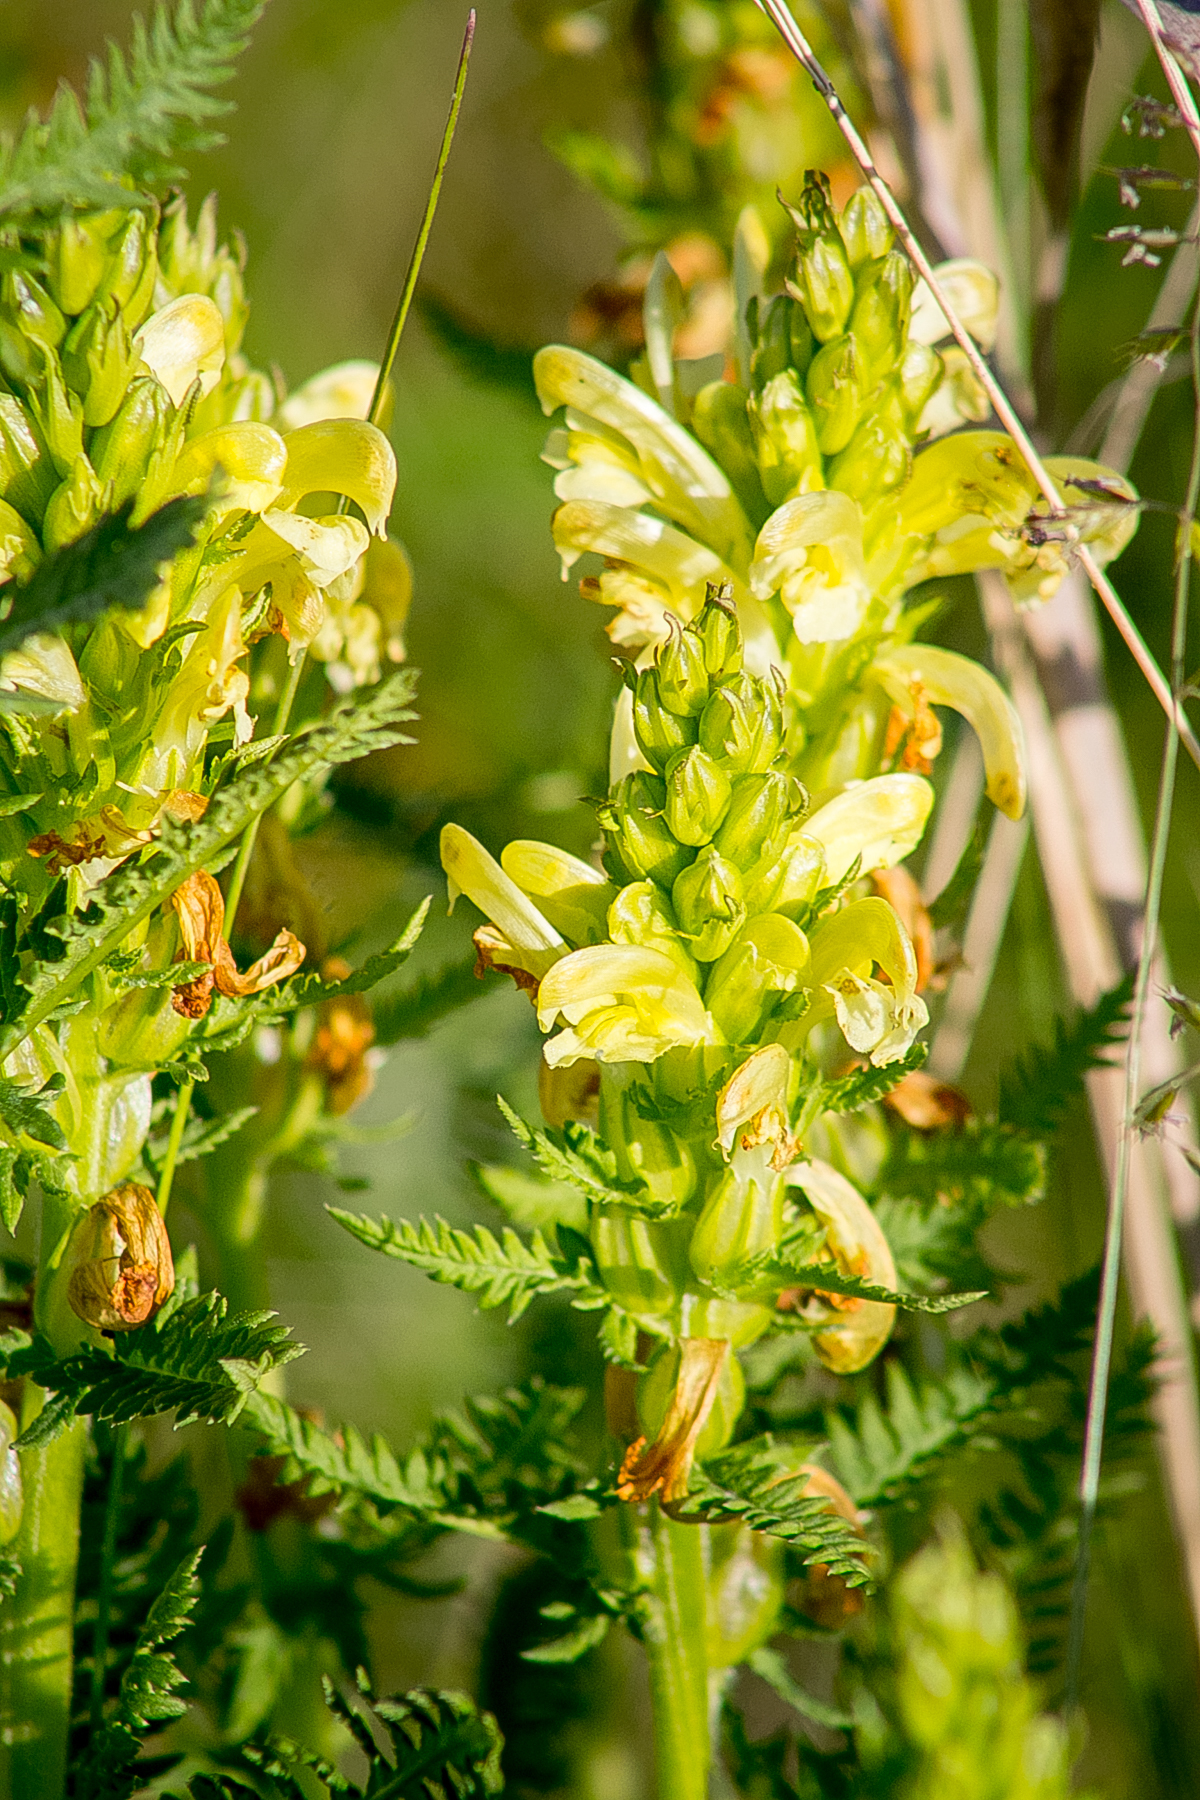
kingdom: Plantae
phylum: Tracheophyta
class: Magnoliopsida
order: Lamiales
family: Orobanchaceae
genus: Pedicularis
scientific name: Pedicularis kaufmannii
